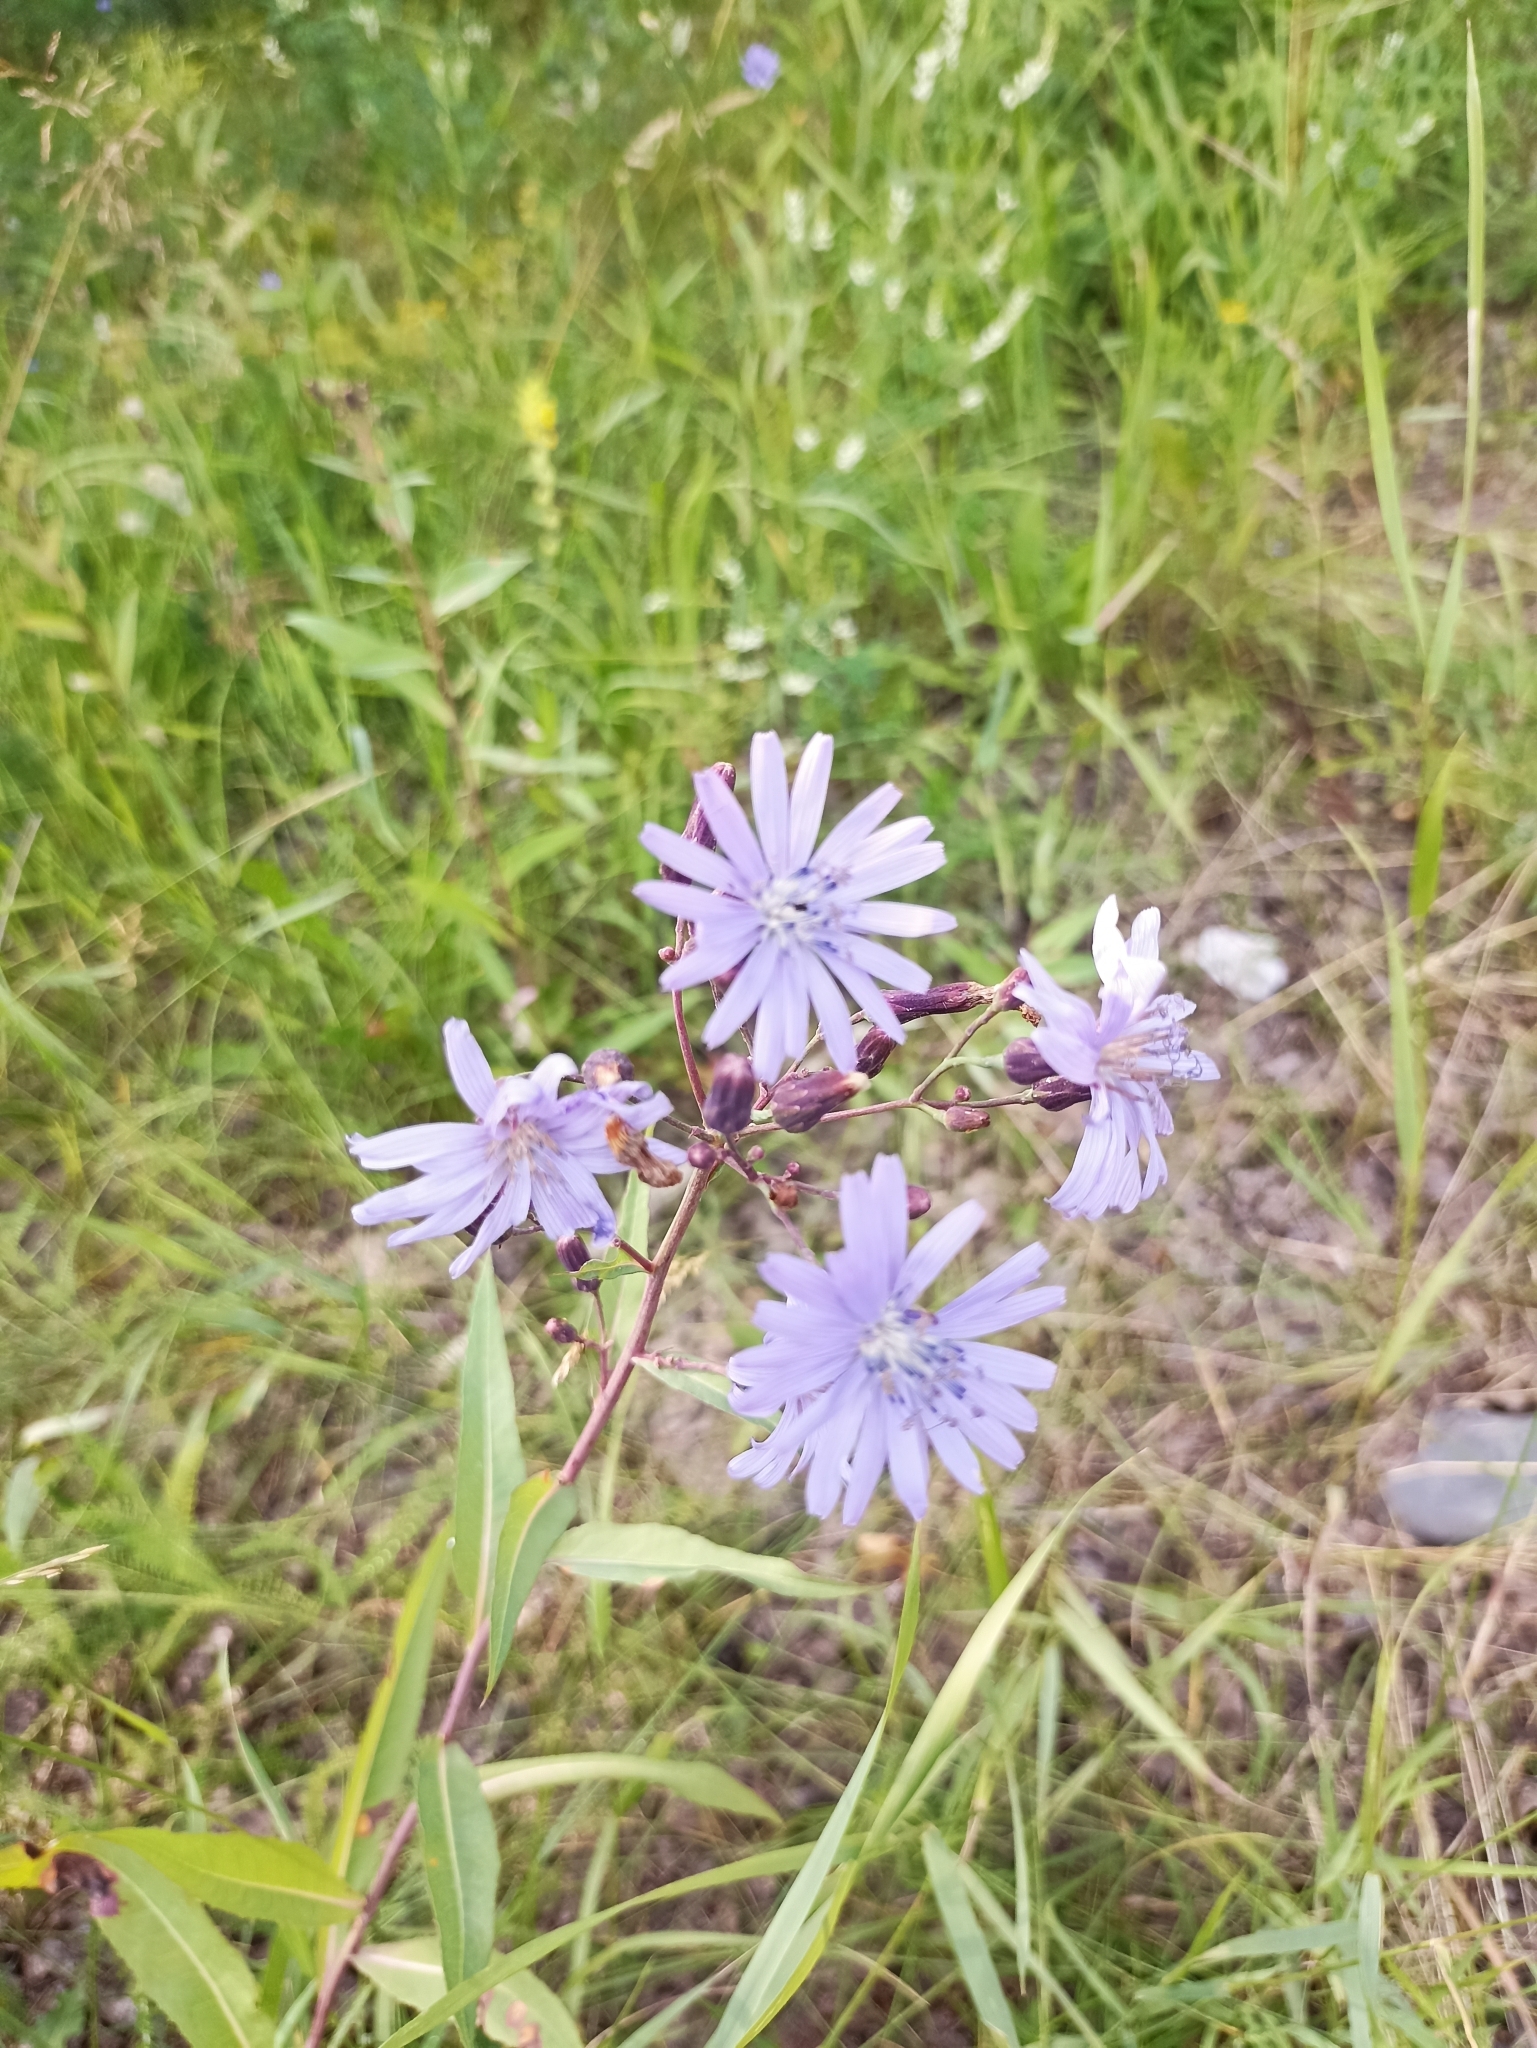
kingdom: Plantae
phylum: Tracheophyta
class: Magnoliopsida
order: Asterales
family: Asteraceae
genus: Lactuca
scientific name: Lactuca sibirica
